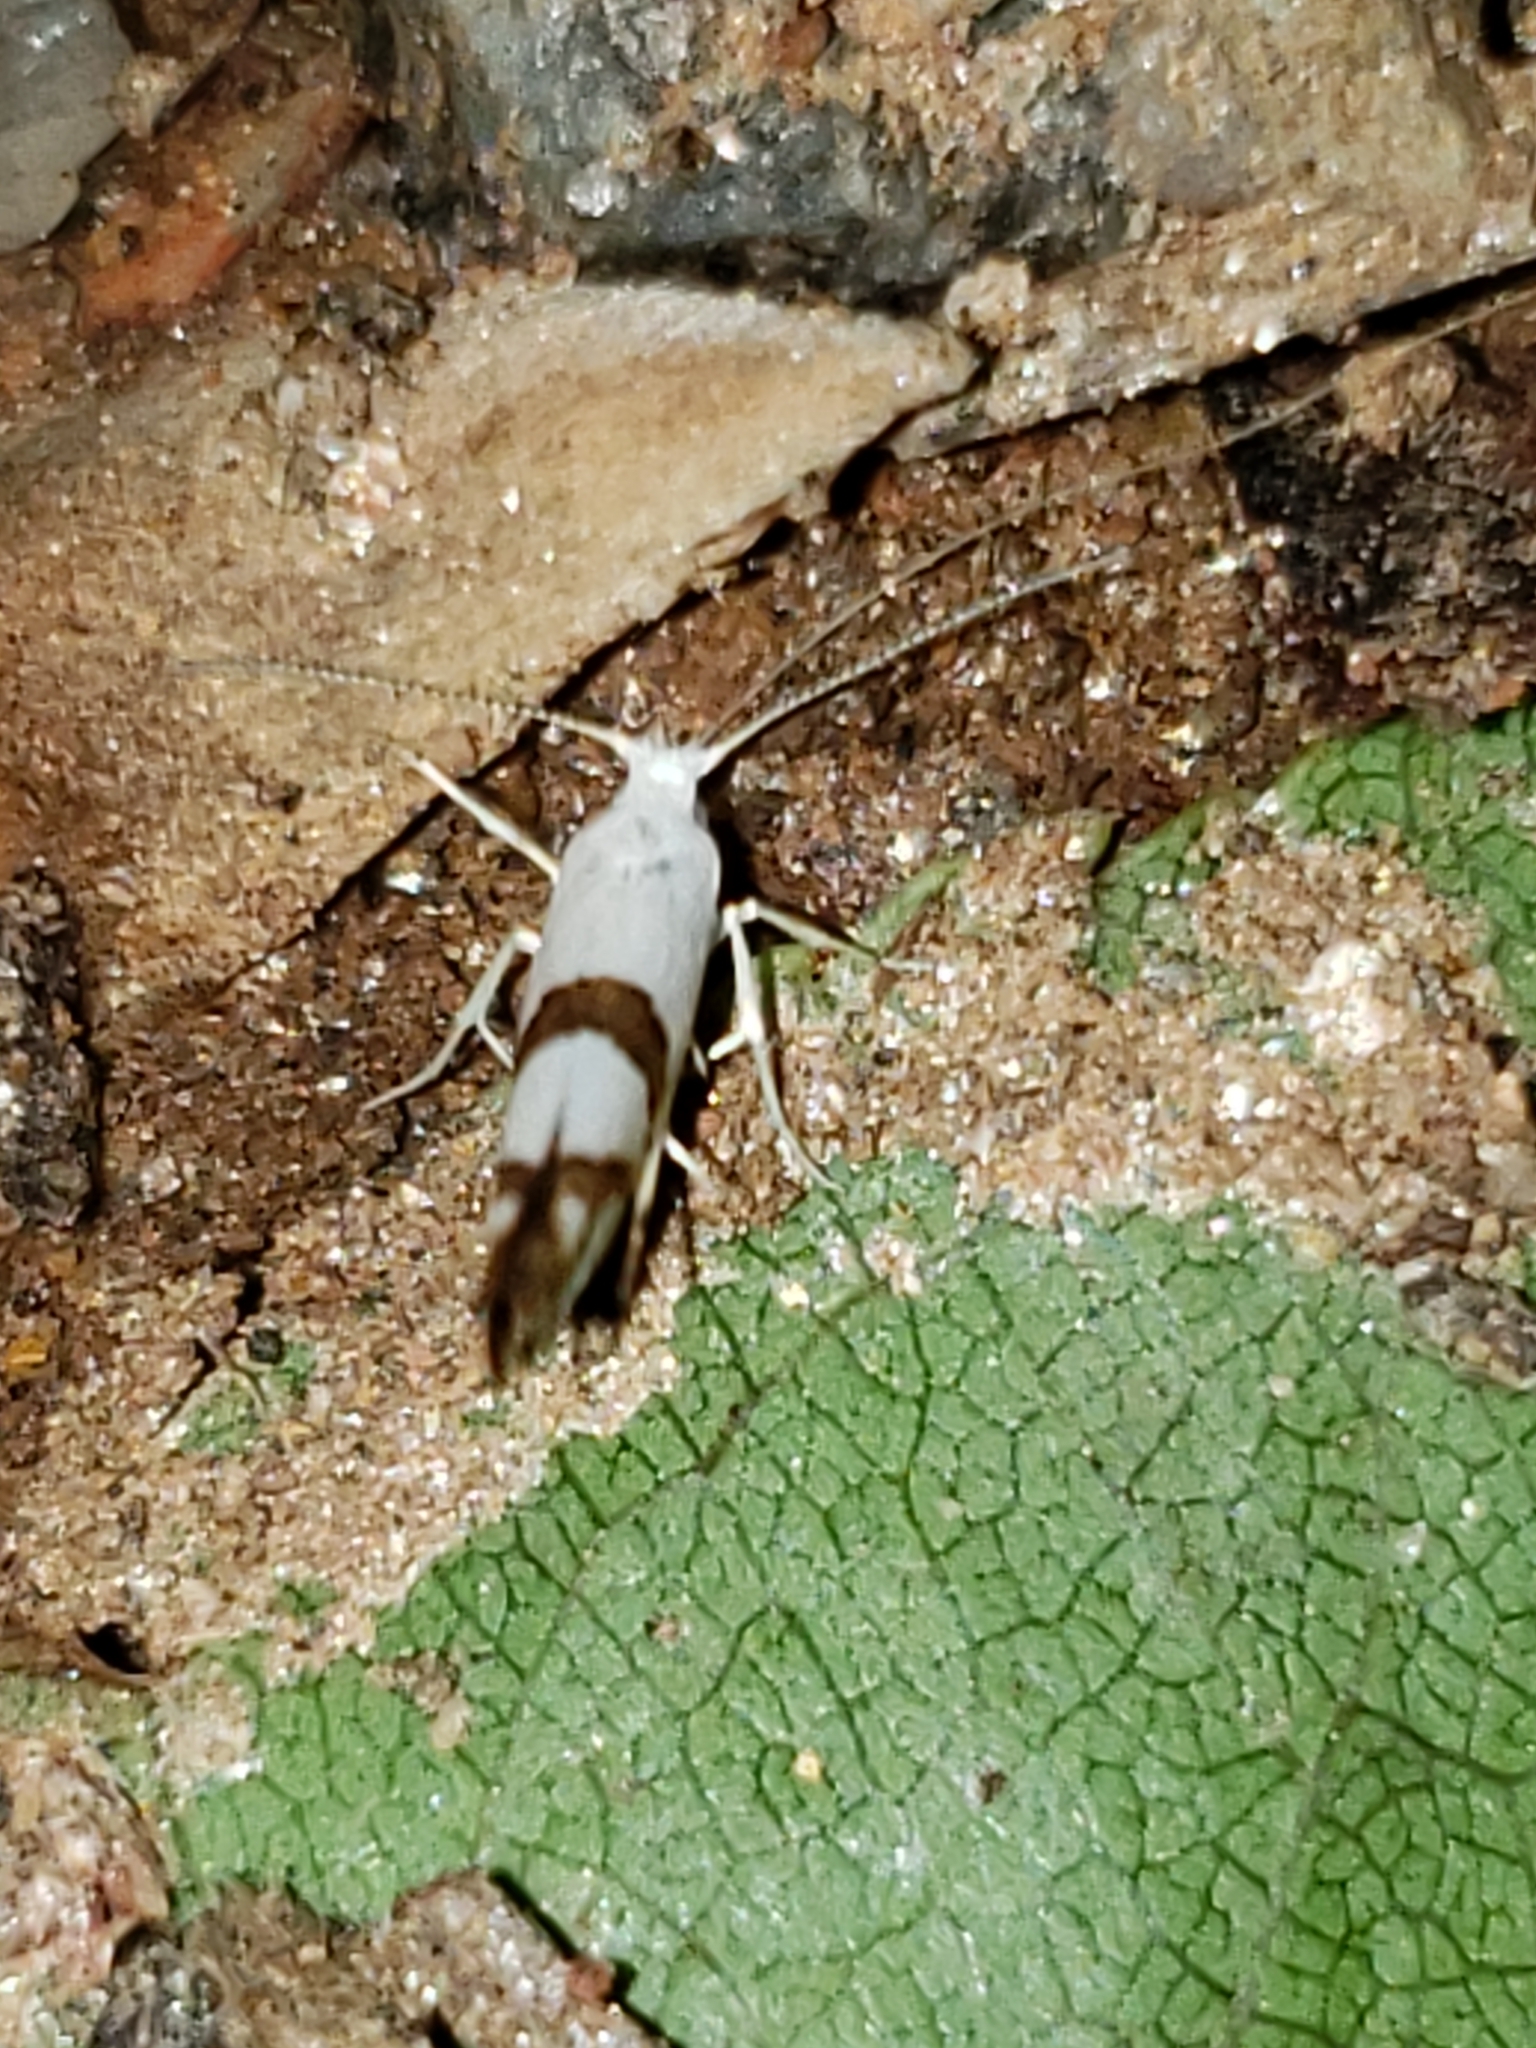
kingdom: Animalia
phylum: Arthropoda
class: Insecta
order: Lepidoptera
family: Argyresthiidae
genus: Argyresthia
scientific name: Argyresthia oreasella
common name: Cherry shoot borer moth
